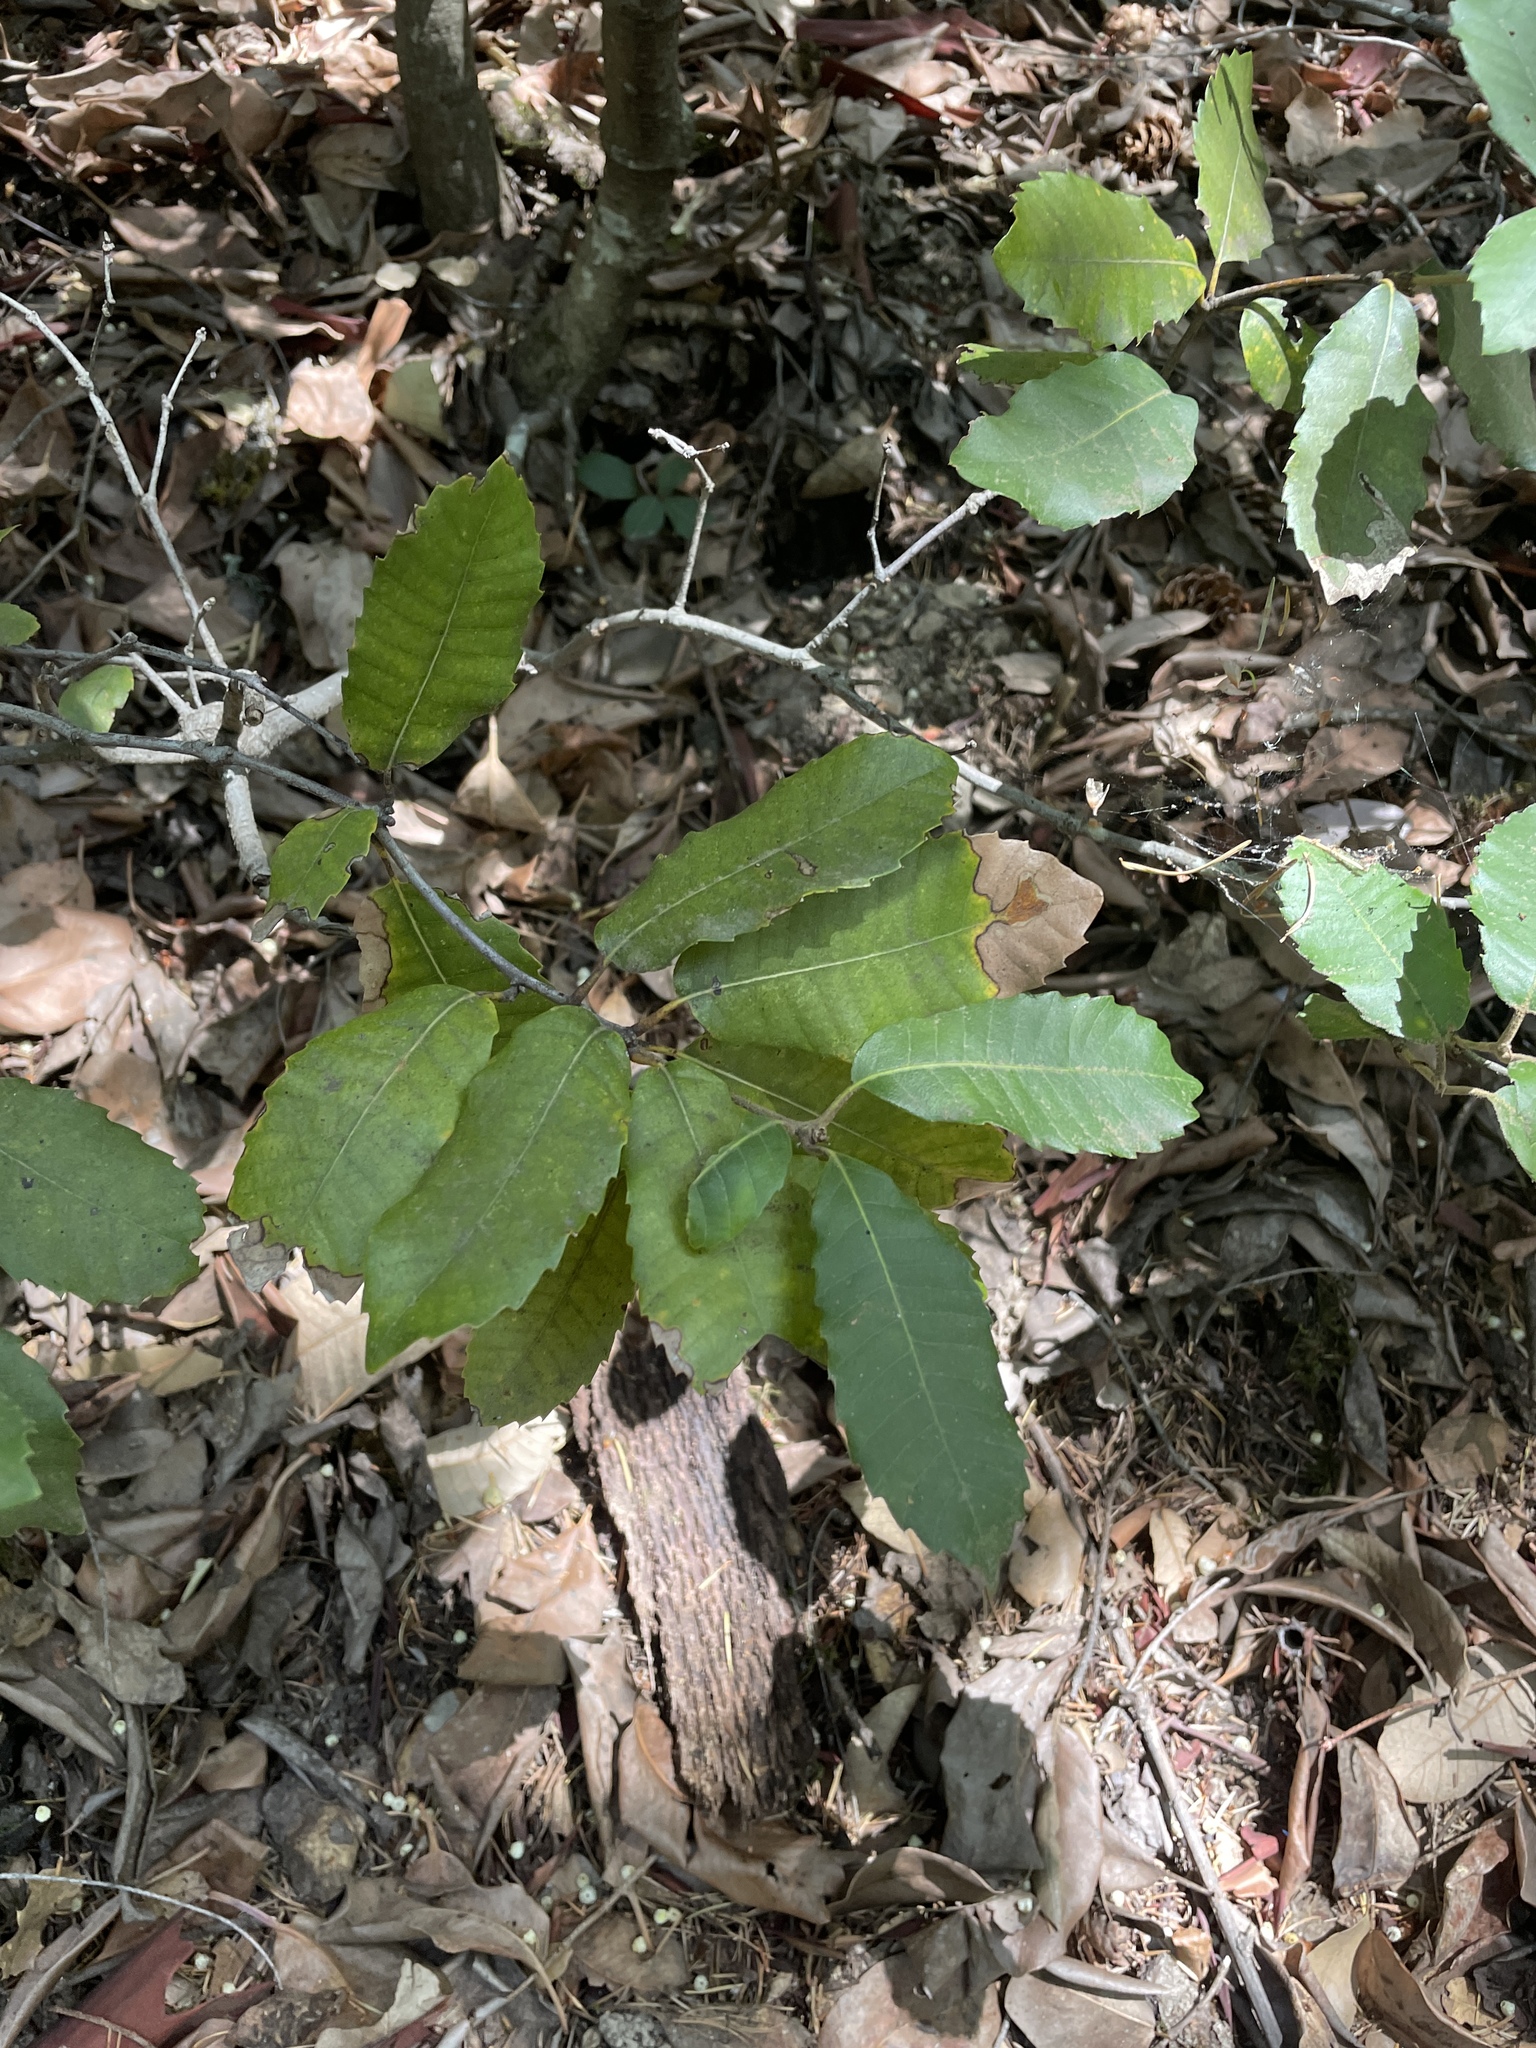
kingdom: Plantae
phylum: Tracheophyta
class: Magnoliopsida
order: Fagales
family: Fagaceae
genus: Notholithocarpus
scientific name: Notholithocarpus densiflorus
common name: Tan bark oak
